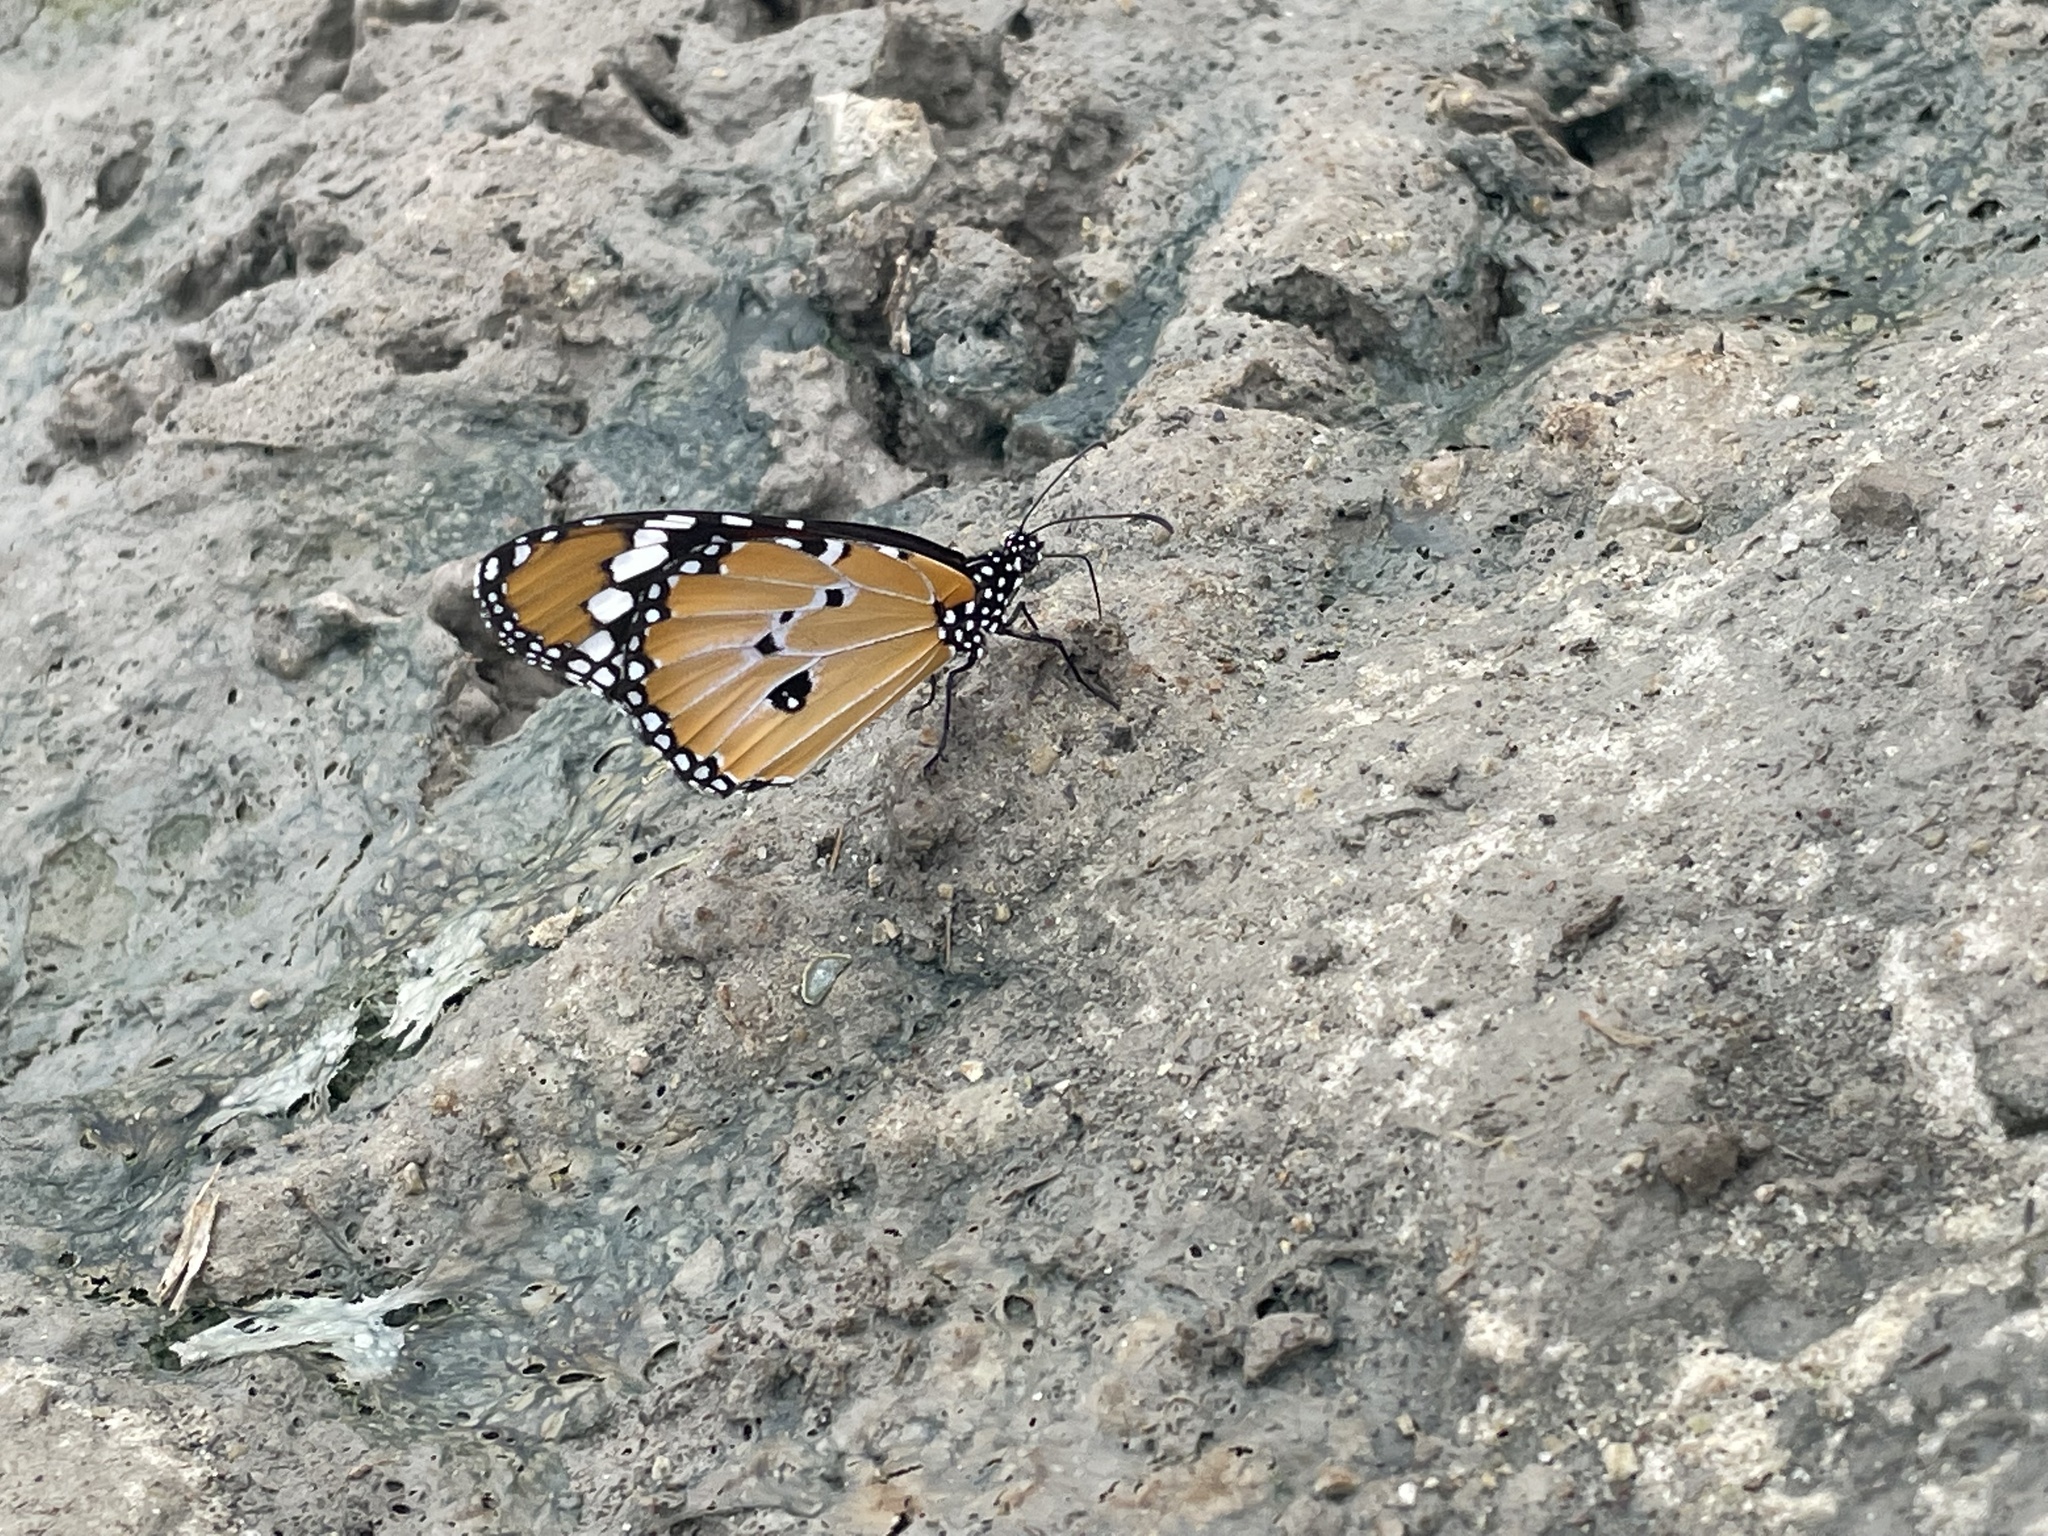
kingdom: Animalia
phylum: Arthropoda
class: Insecta
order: Lepidoptera
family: Nymphalidae
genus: Danaus
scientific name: Danaus chrysippus
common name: Plain tiger
